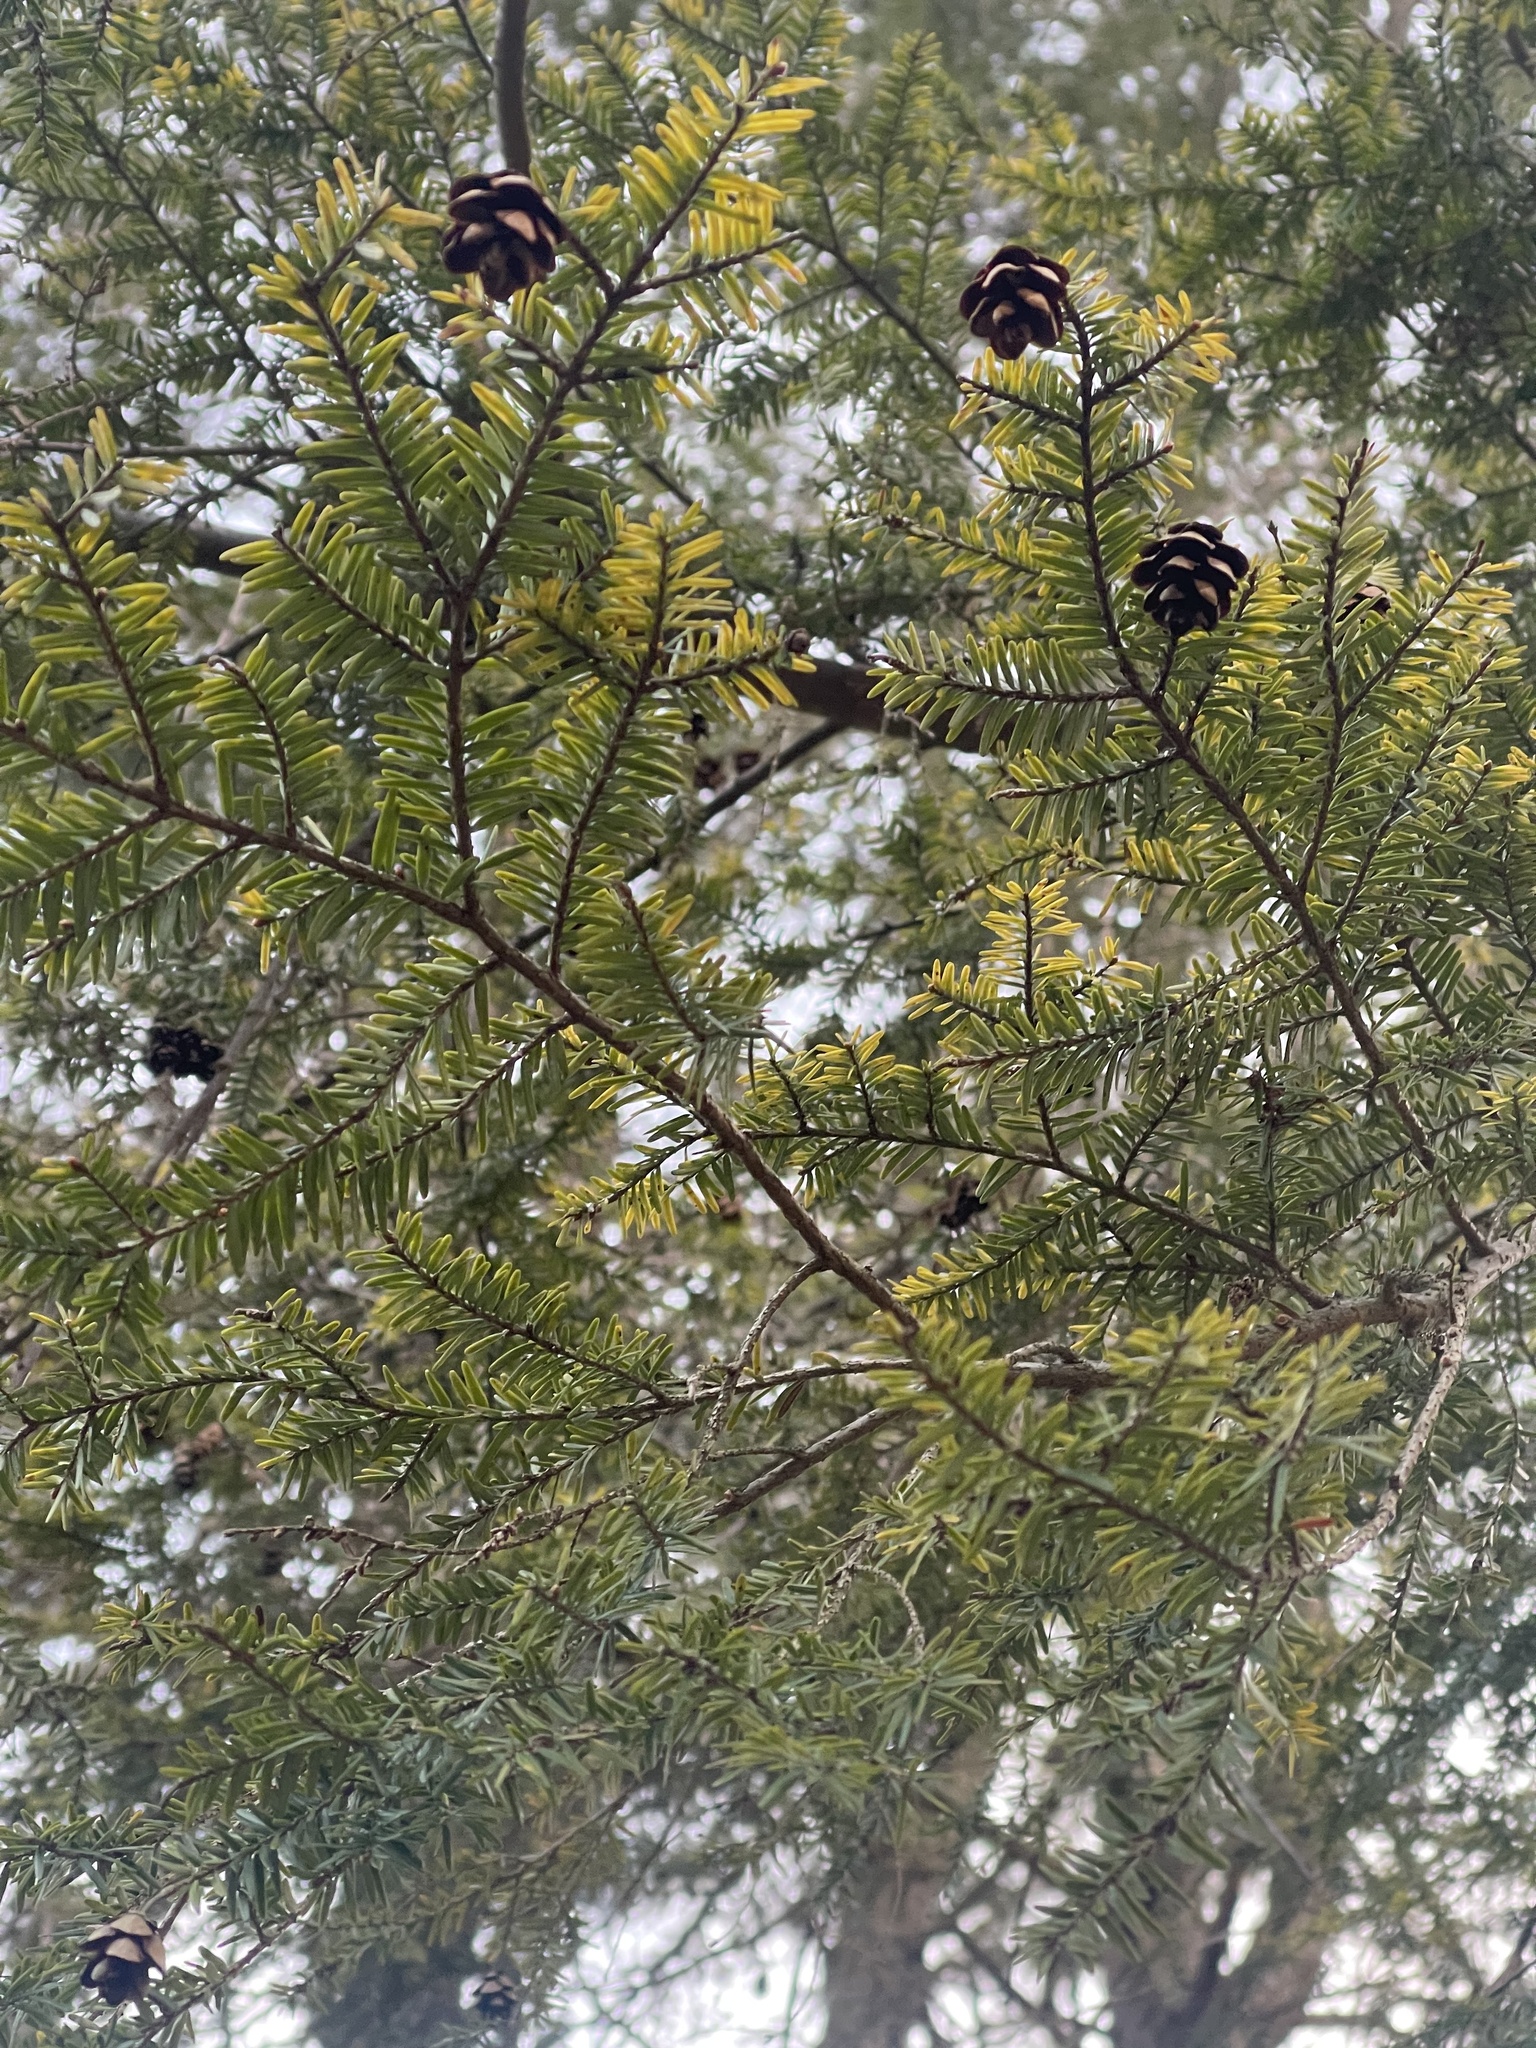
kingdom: Plantae
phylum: Tracheophyta
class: Pinopsida
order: Pinales
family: Pinaceae
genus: Tsuga
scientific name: Tsuga canadensis
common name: Eastern hemlock
